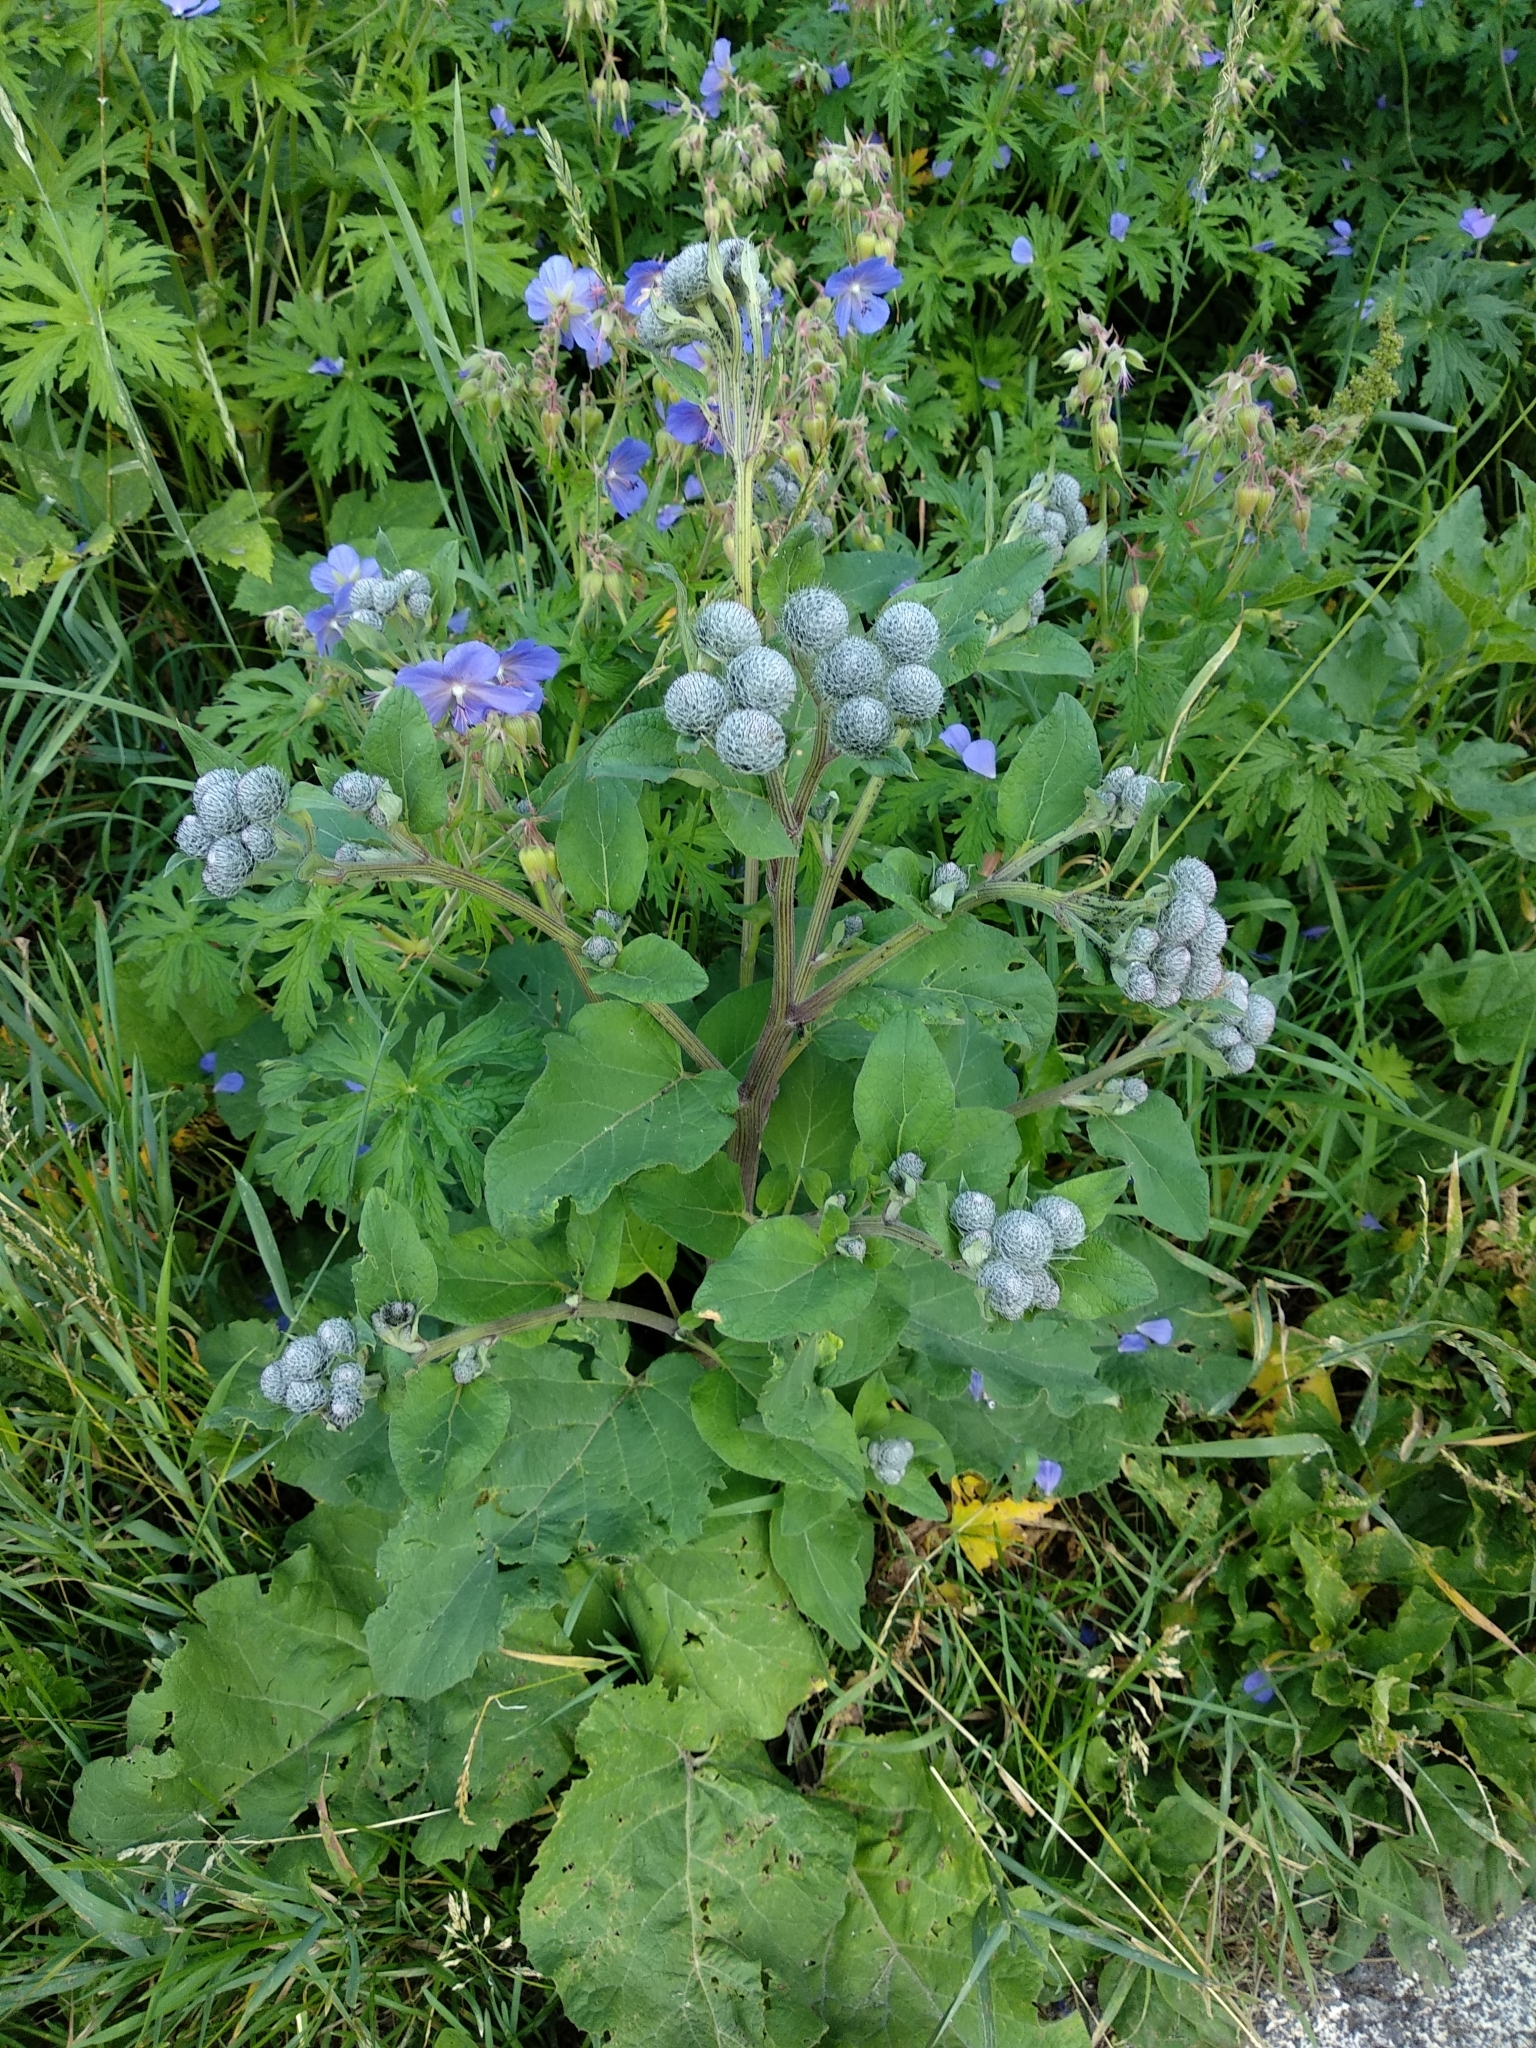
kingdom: Plantae
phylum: Tracheophyta
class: Magnoliopsida
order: Asterales
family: Asteraceae
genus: Arctium
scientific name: Arctium tomentosum
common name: Woolly burdock
